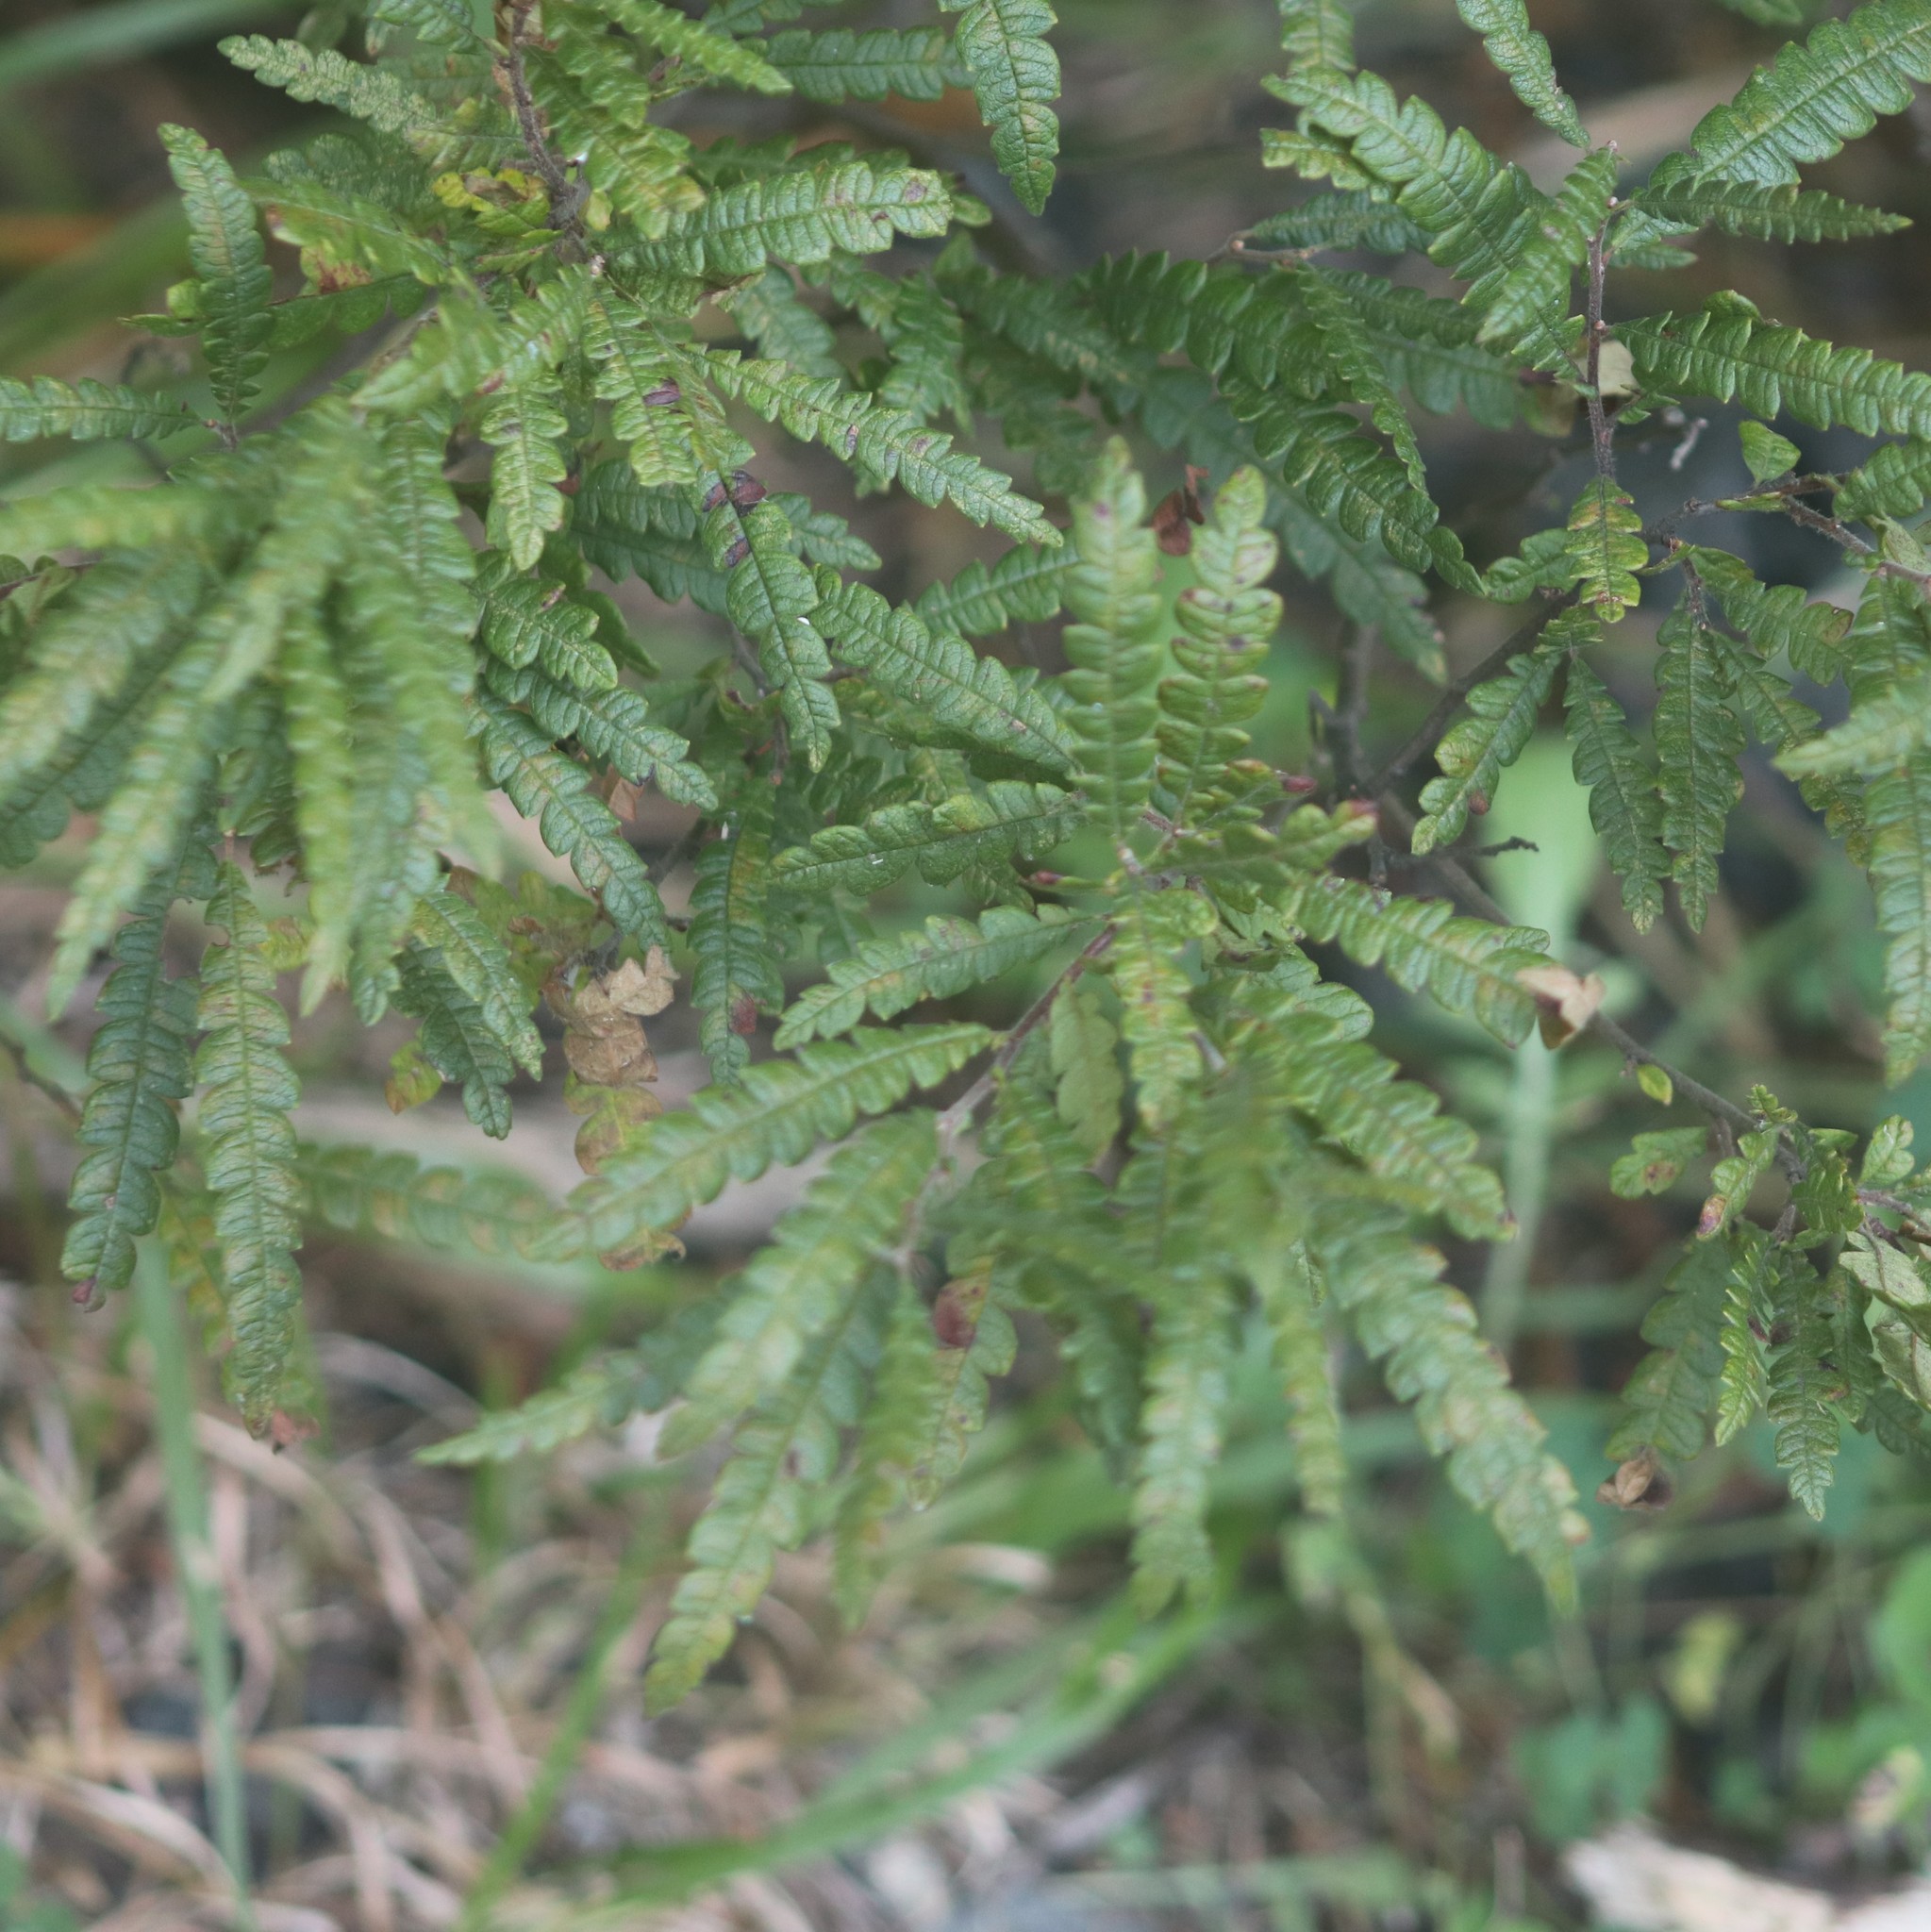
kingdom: Plantae
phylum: Tracheophyta
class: Magnoliopsida
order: Fagales
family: Myricaceae
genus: Comptonia
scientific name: Comptonia peregrina
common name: Sweet-fern
